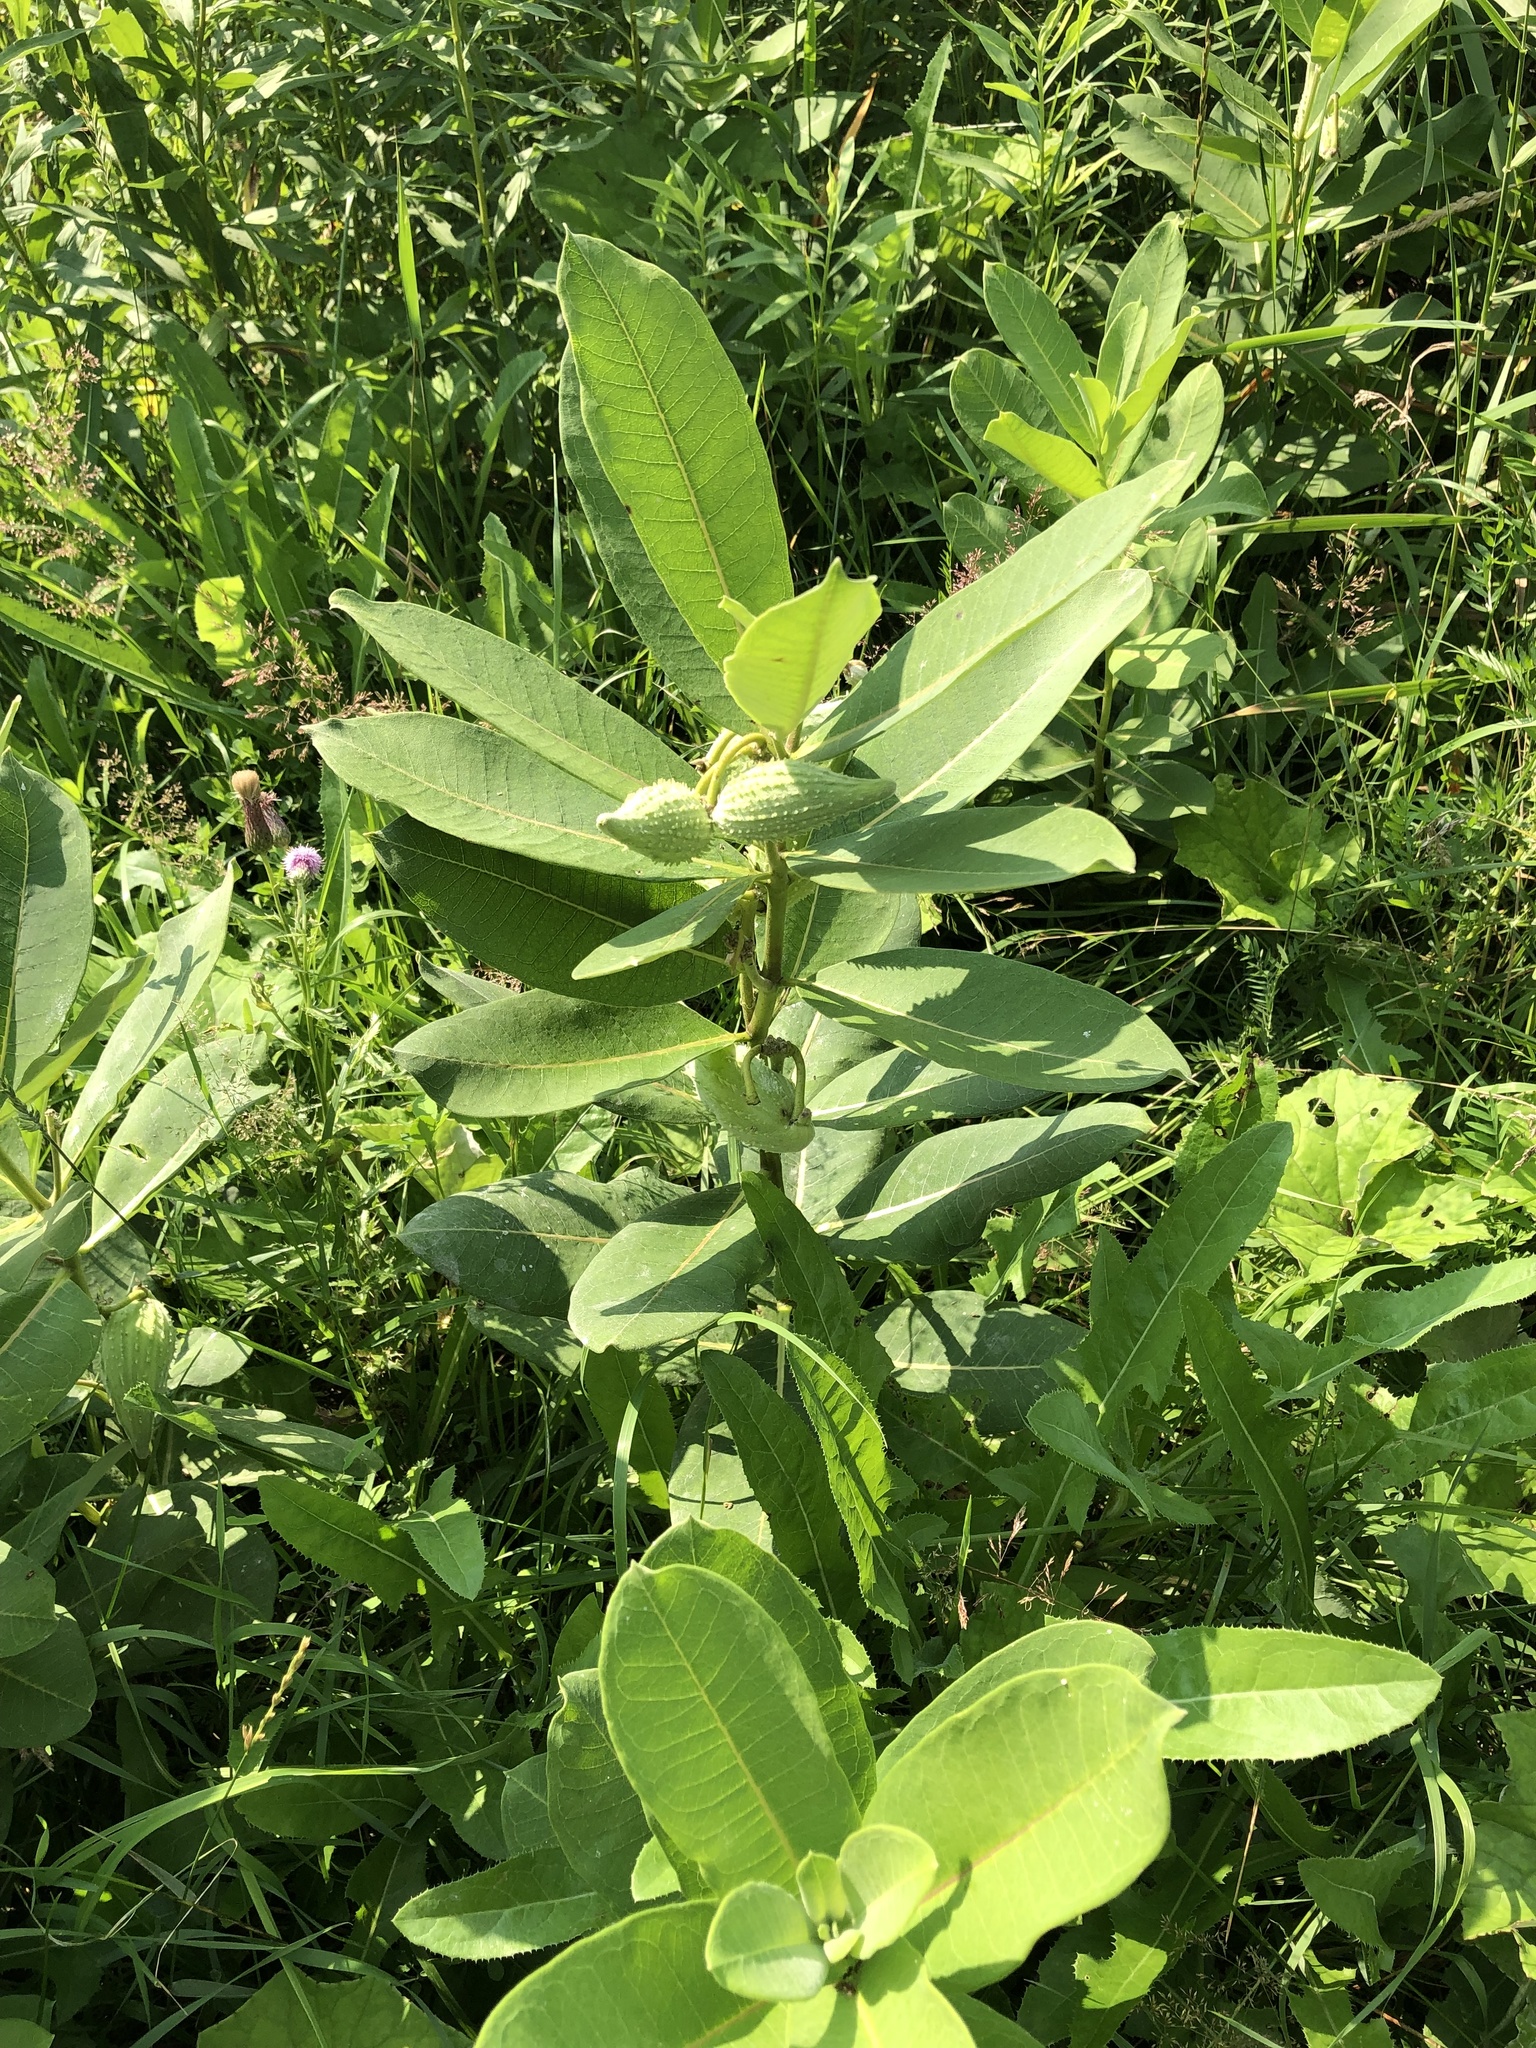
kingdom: Plantae
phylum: Tracheophyta
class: Magnoliopsida
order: Gentianales
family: Apocynaceae
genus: Asclepias
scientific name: Asclepias syriaca
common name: Common milkweed
